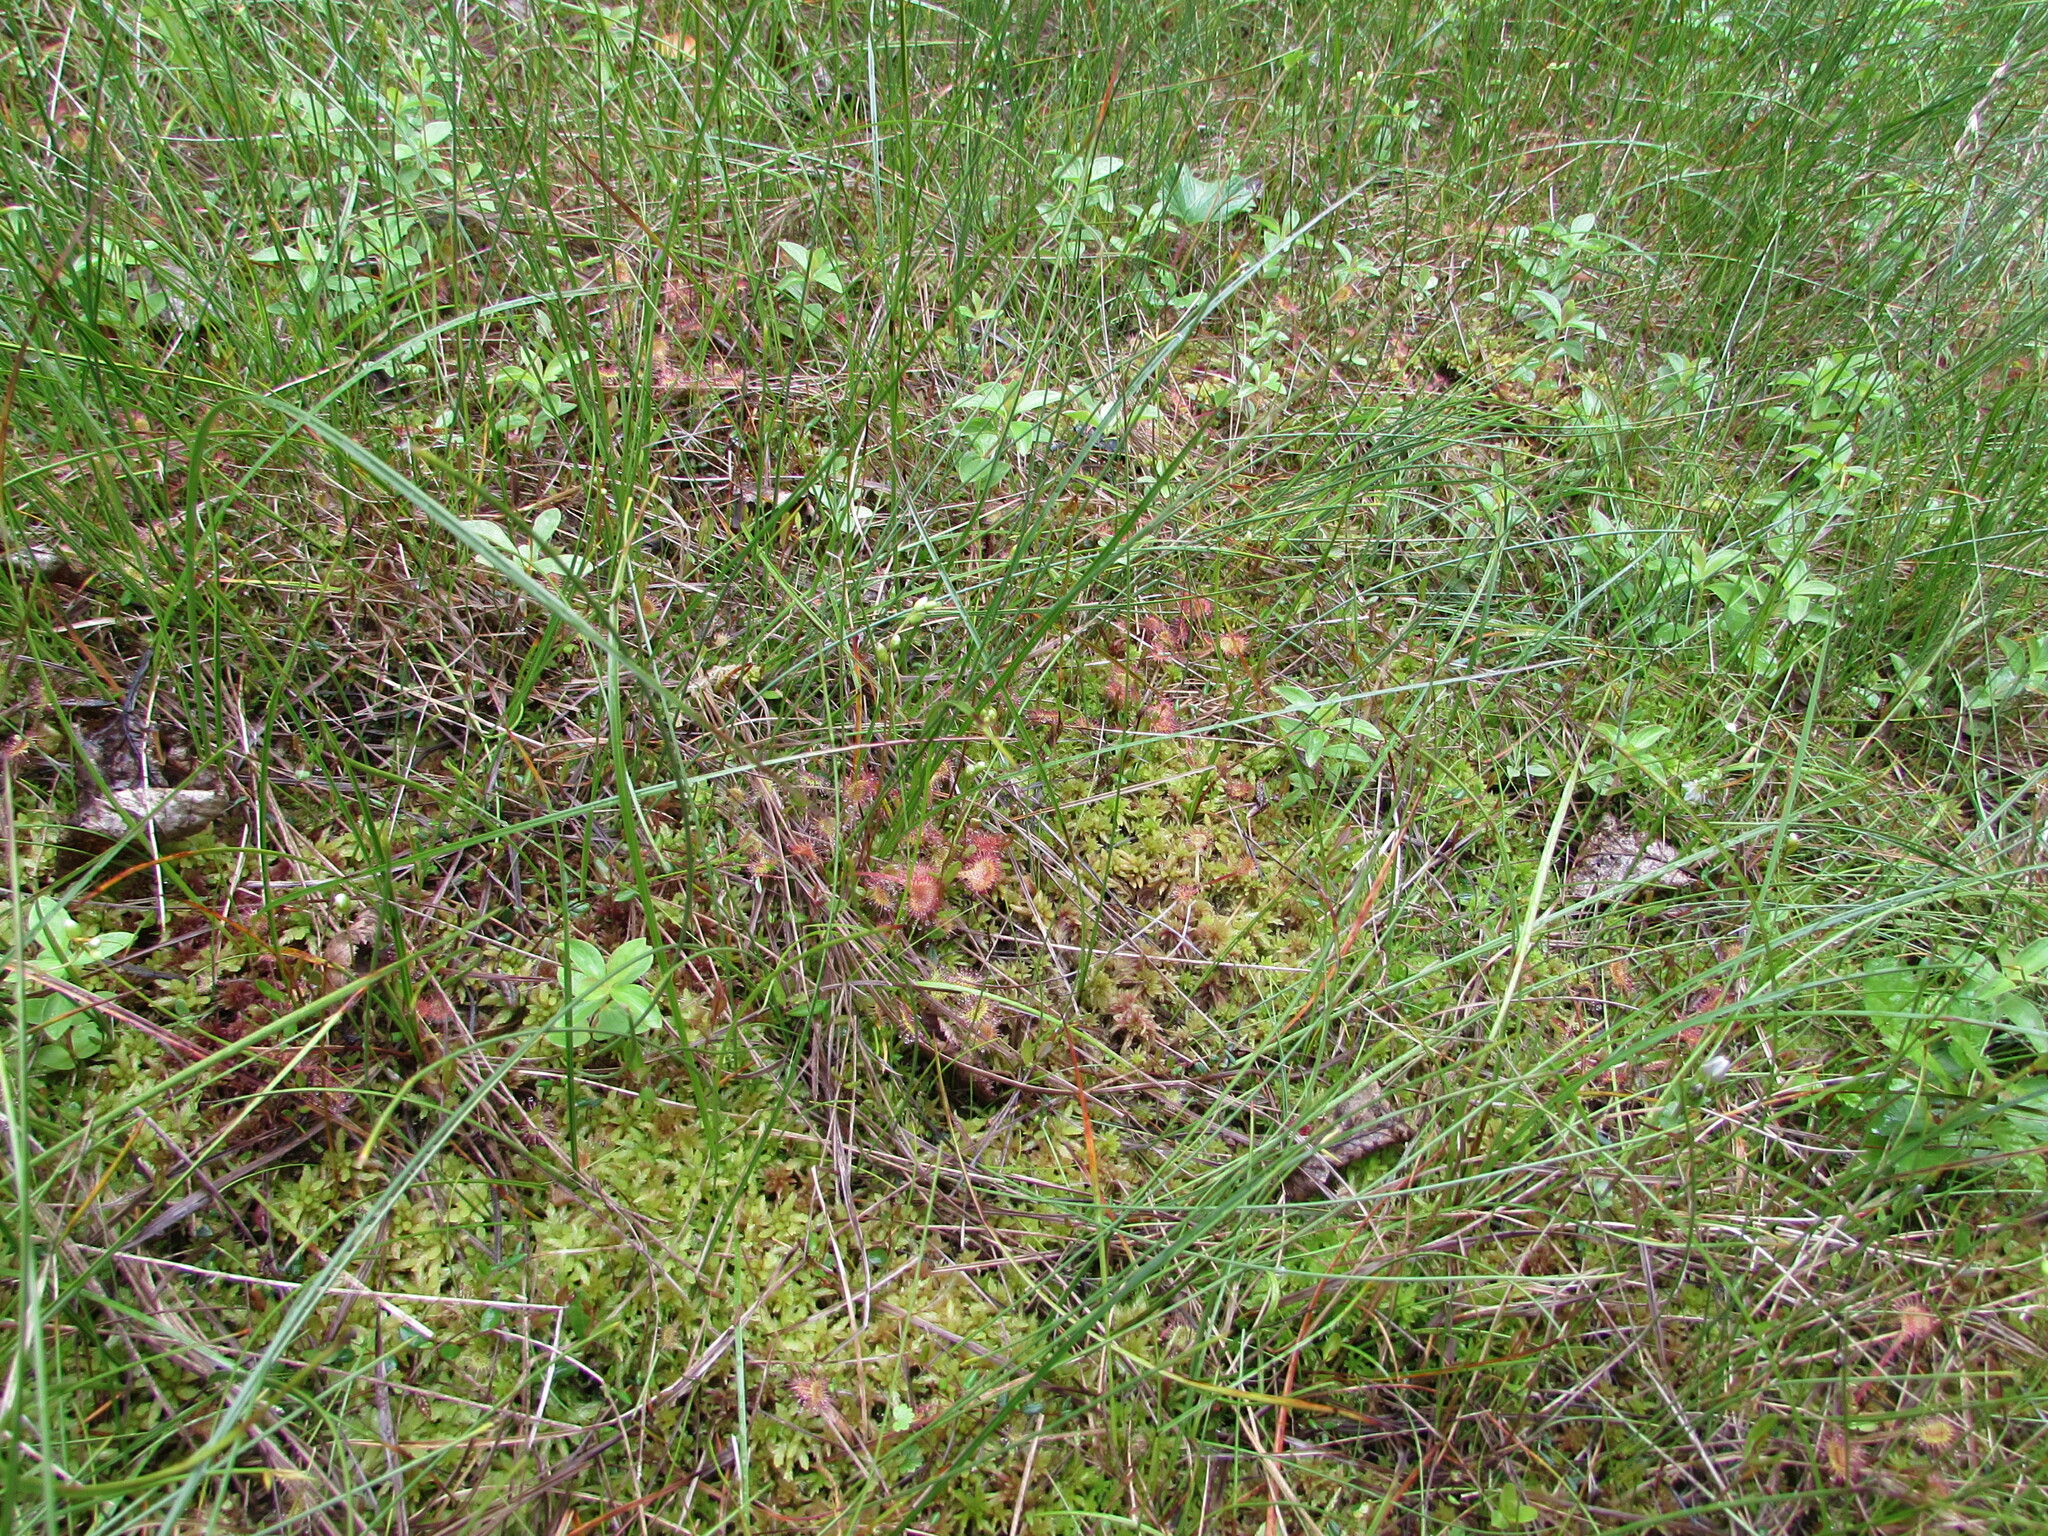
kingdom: Plantae
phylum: Tracheophyta
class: Magnoliopsida
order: Caryophyllales
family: Droseraceae
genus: Drosera
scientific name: Drosera rotundifolia
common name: Round-leaved sundew
